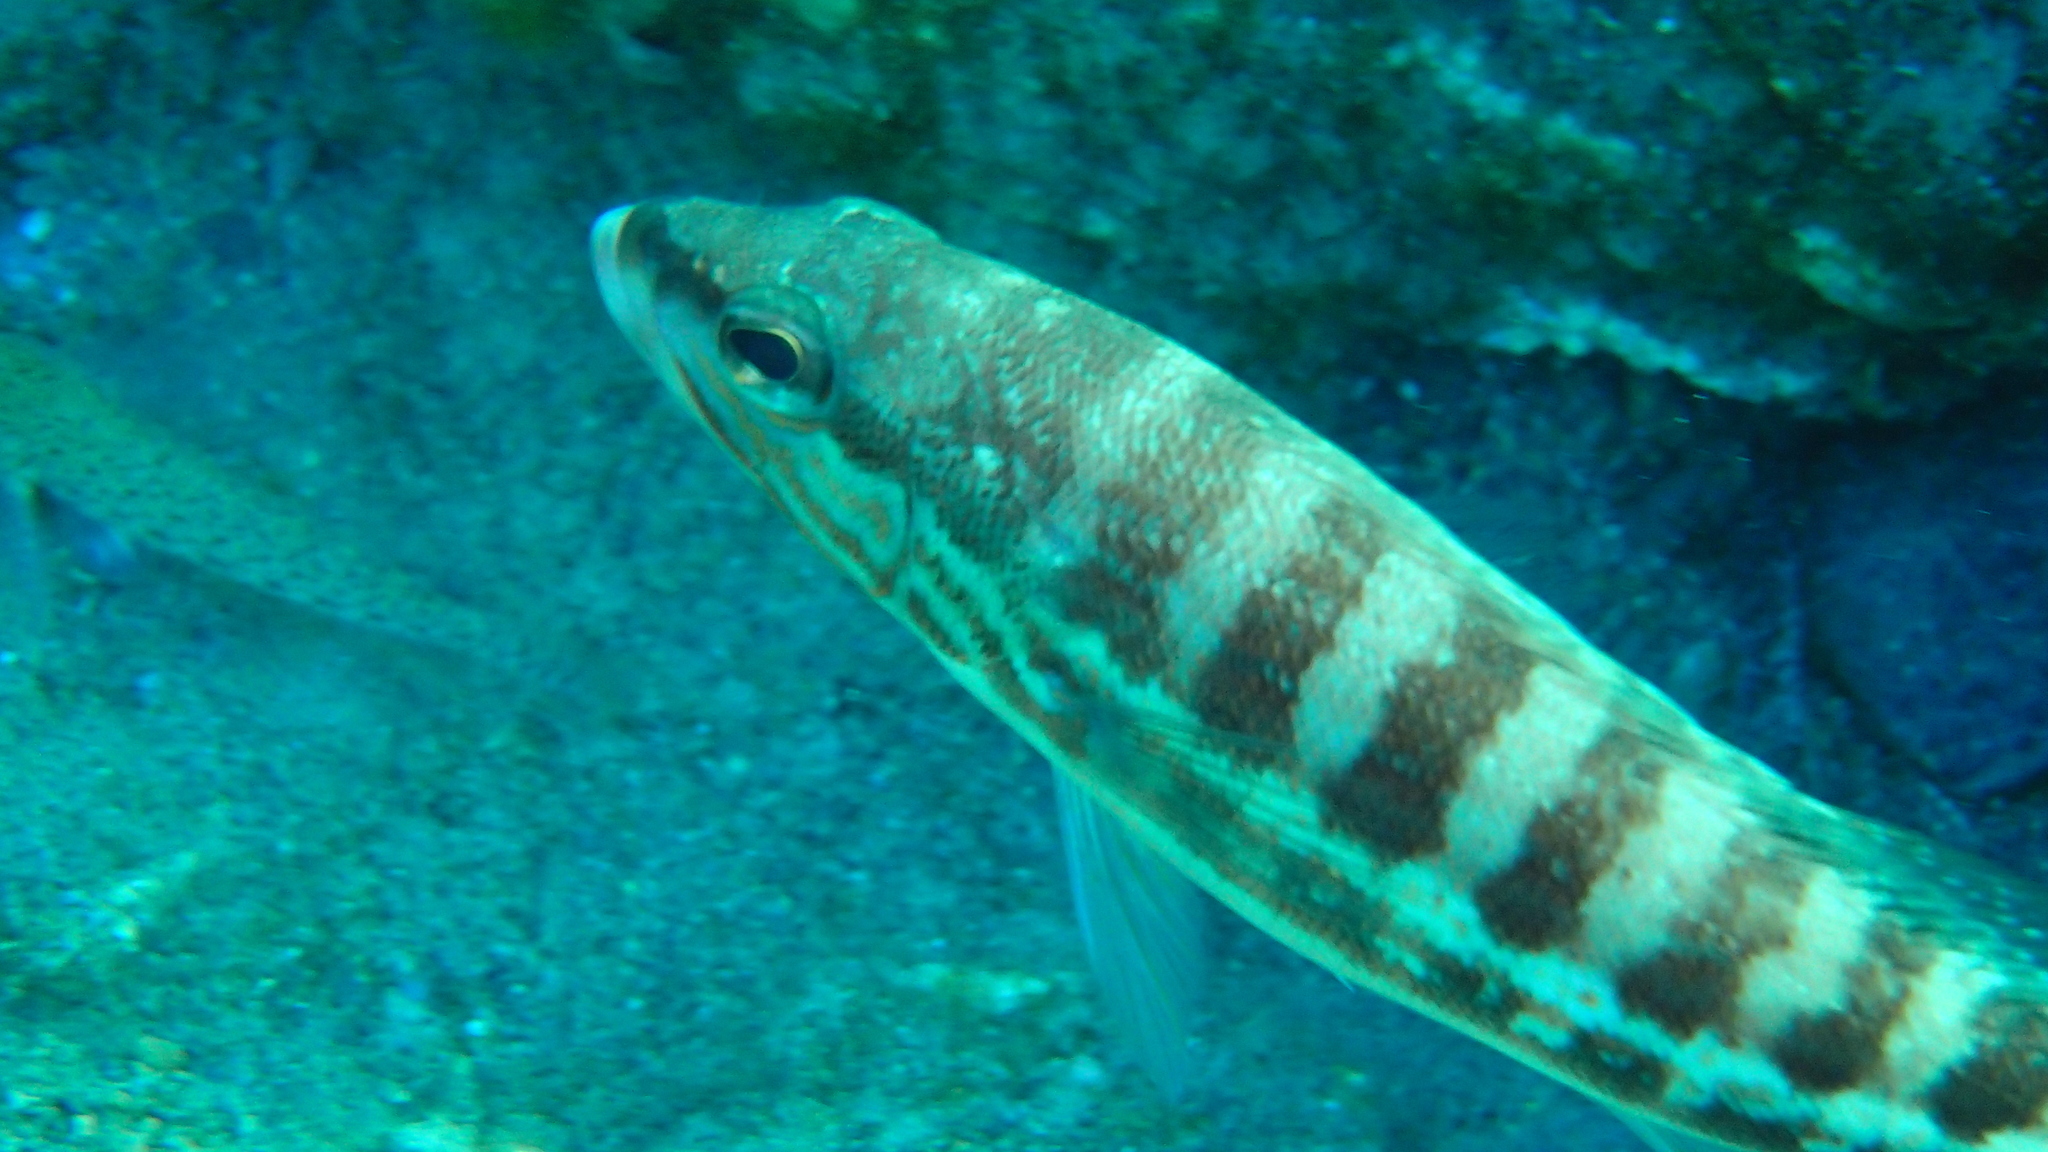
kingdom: Animalia
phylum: Chordata
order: Perciformes
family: Serranidae
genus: Serranus
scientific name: Serranus cabrilla
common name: Comber
